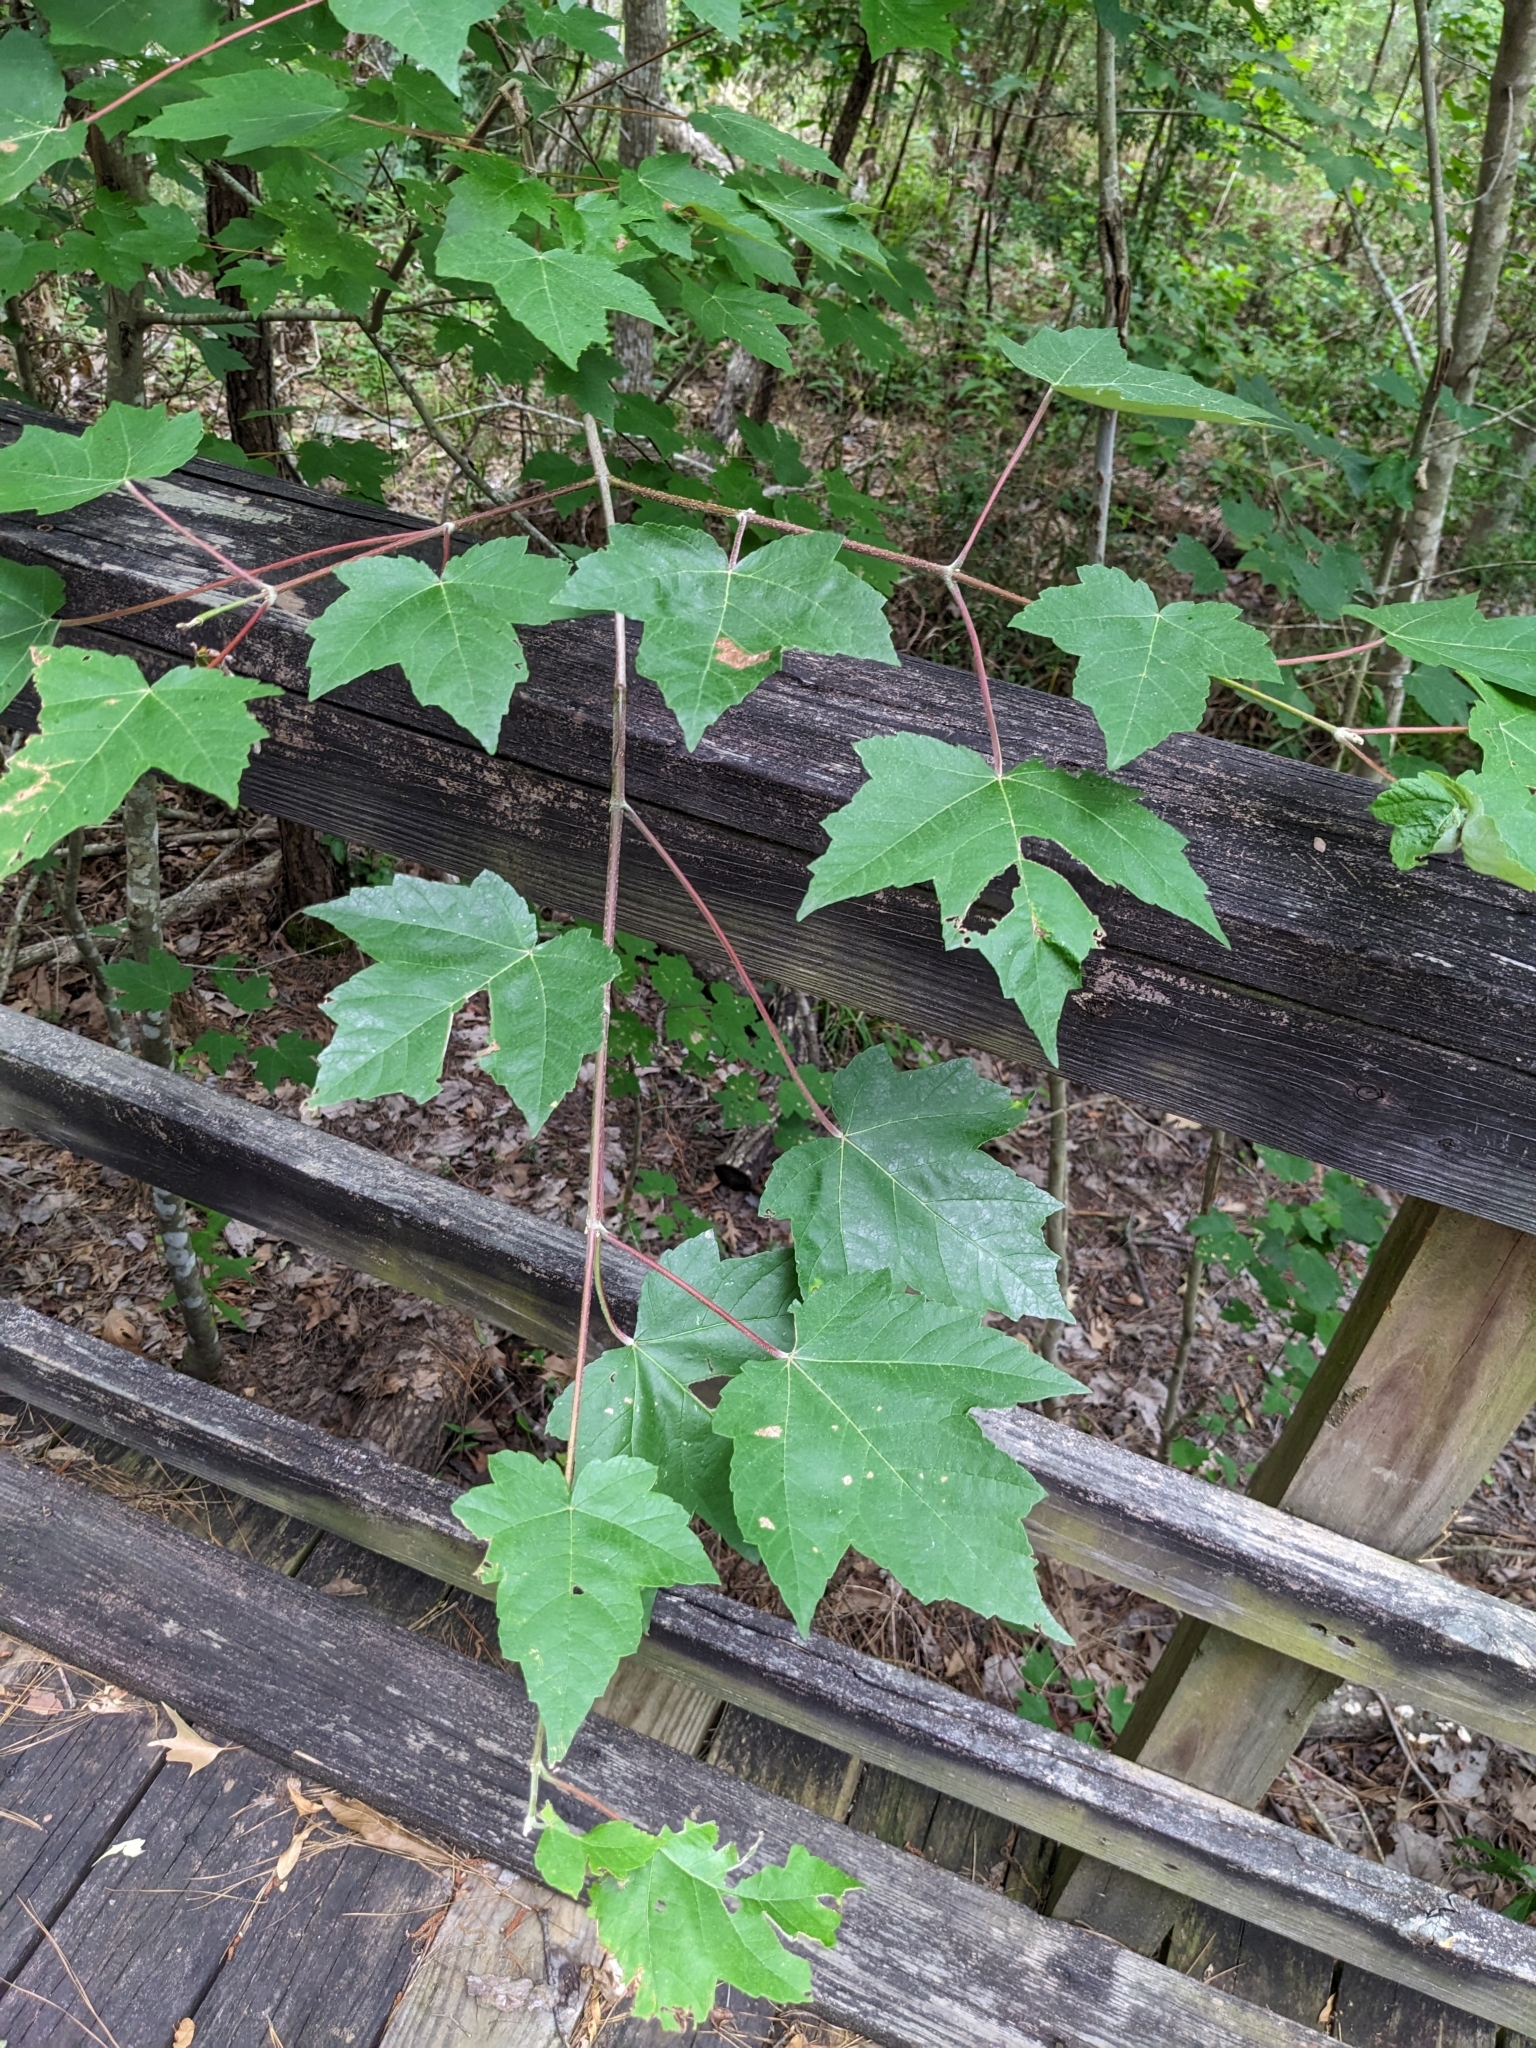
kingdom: Plantae
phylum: Tracheophyta
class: Magnoliopsida
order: Sapindales
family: Sapindaceae
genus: Acer
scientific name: Acer rubrum
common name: Red maple
